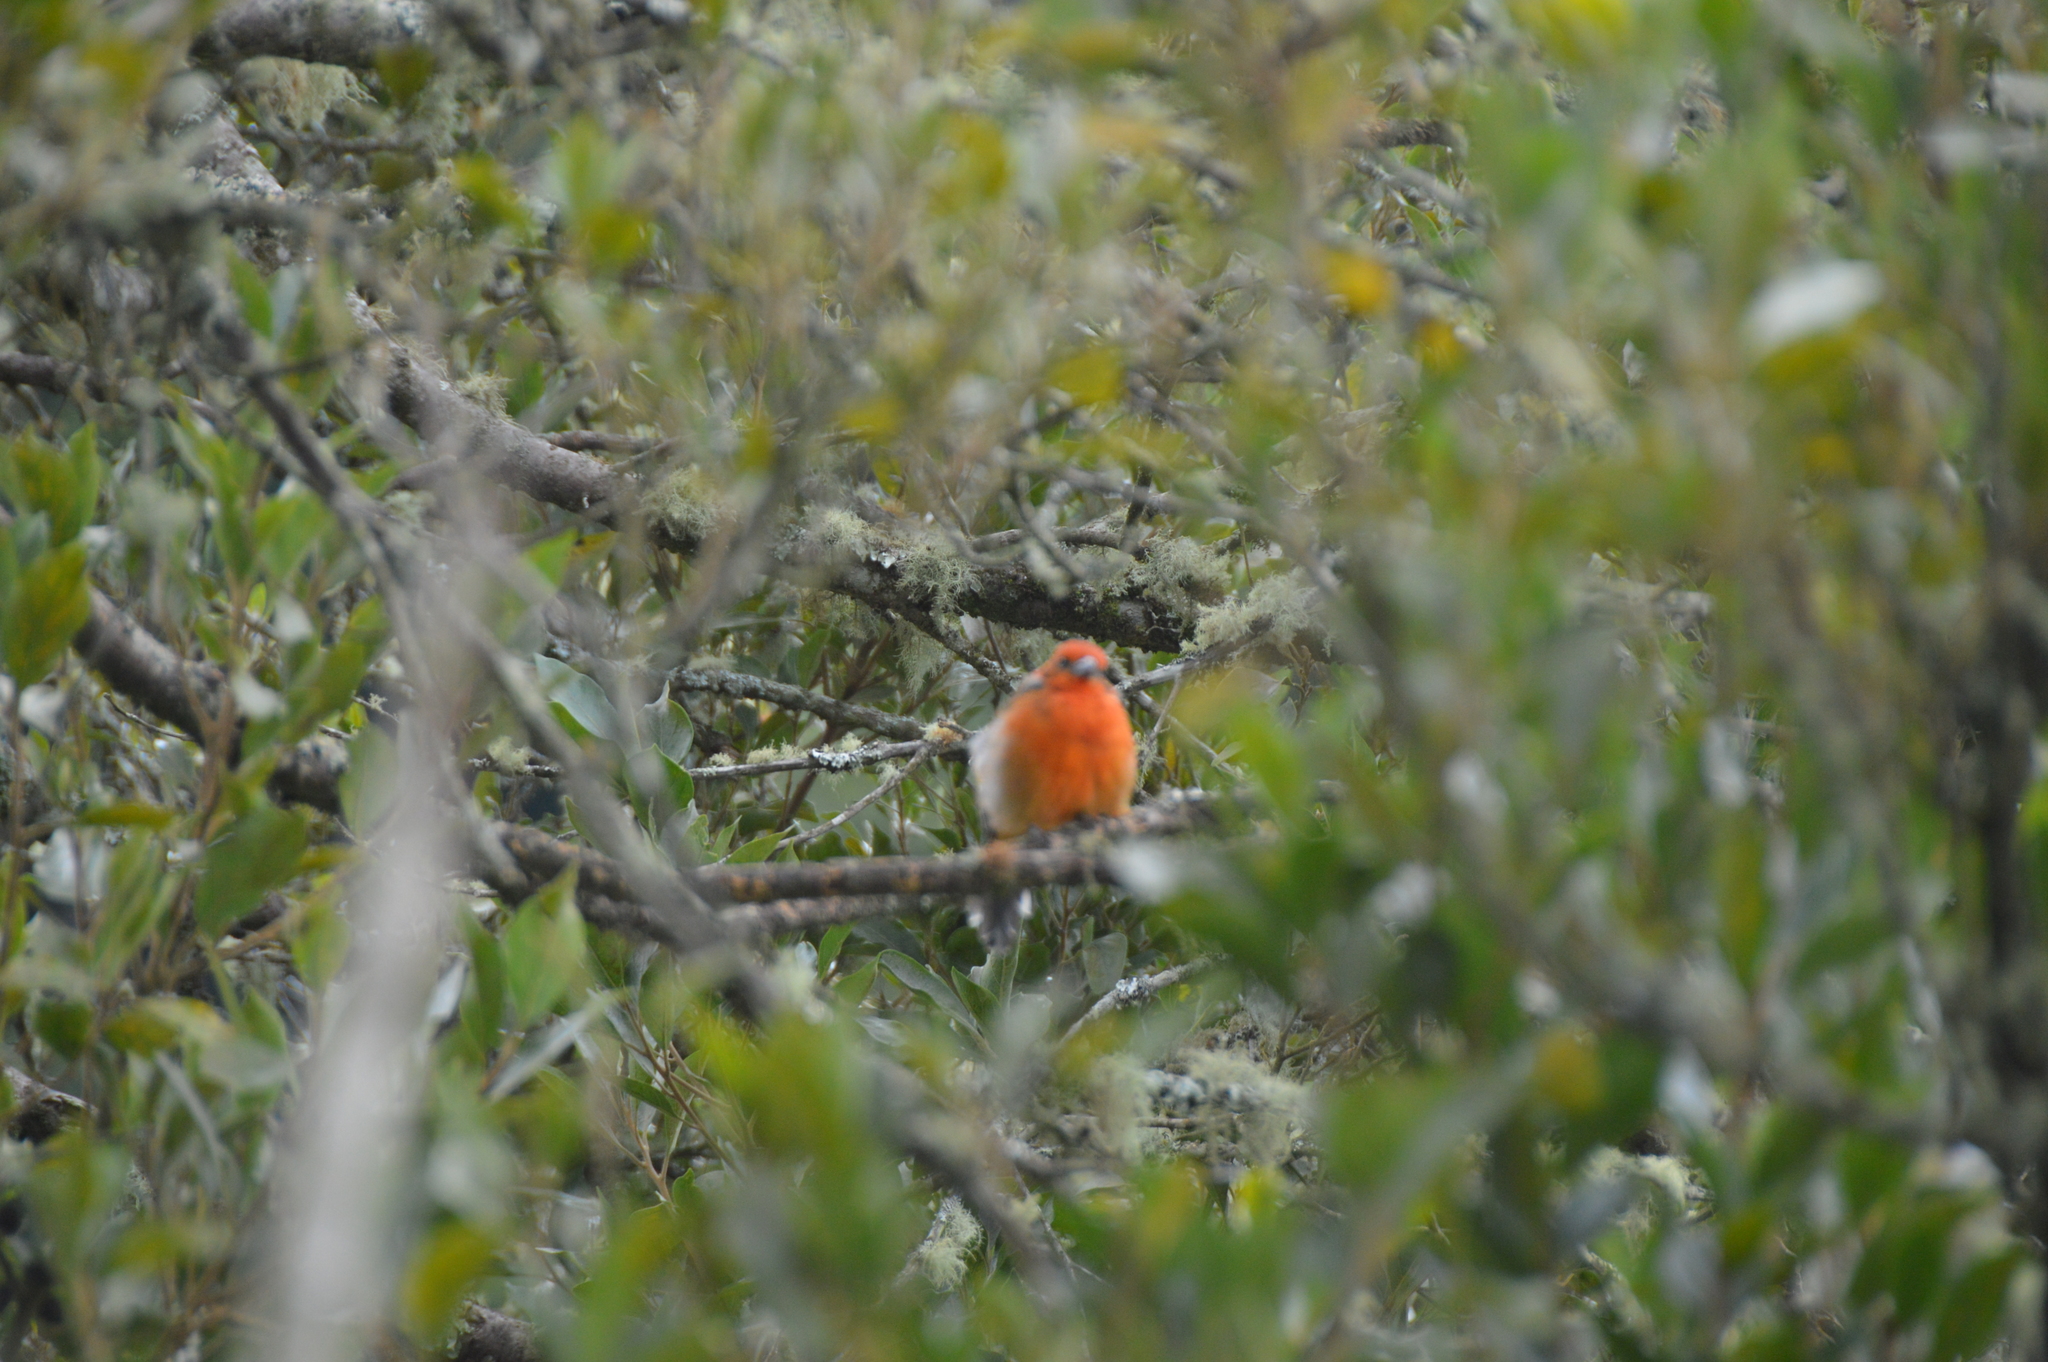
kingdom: Animalia
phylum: Chordata
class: Aves
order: Passeriformes
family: Cardinalidae
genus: Piranga
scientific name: Piranga bidentata
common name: Flame-colored tanager
